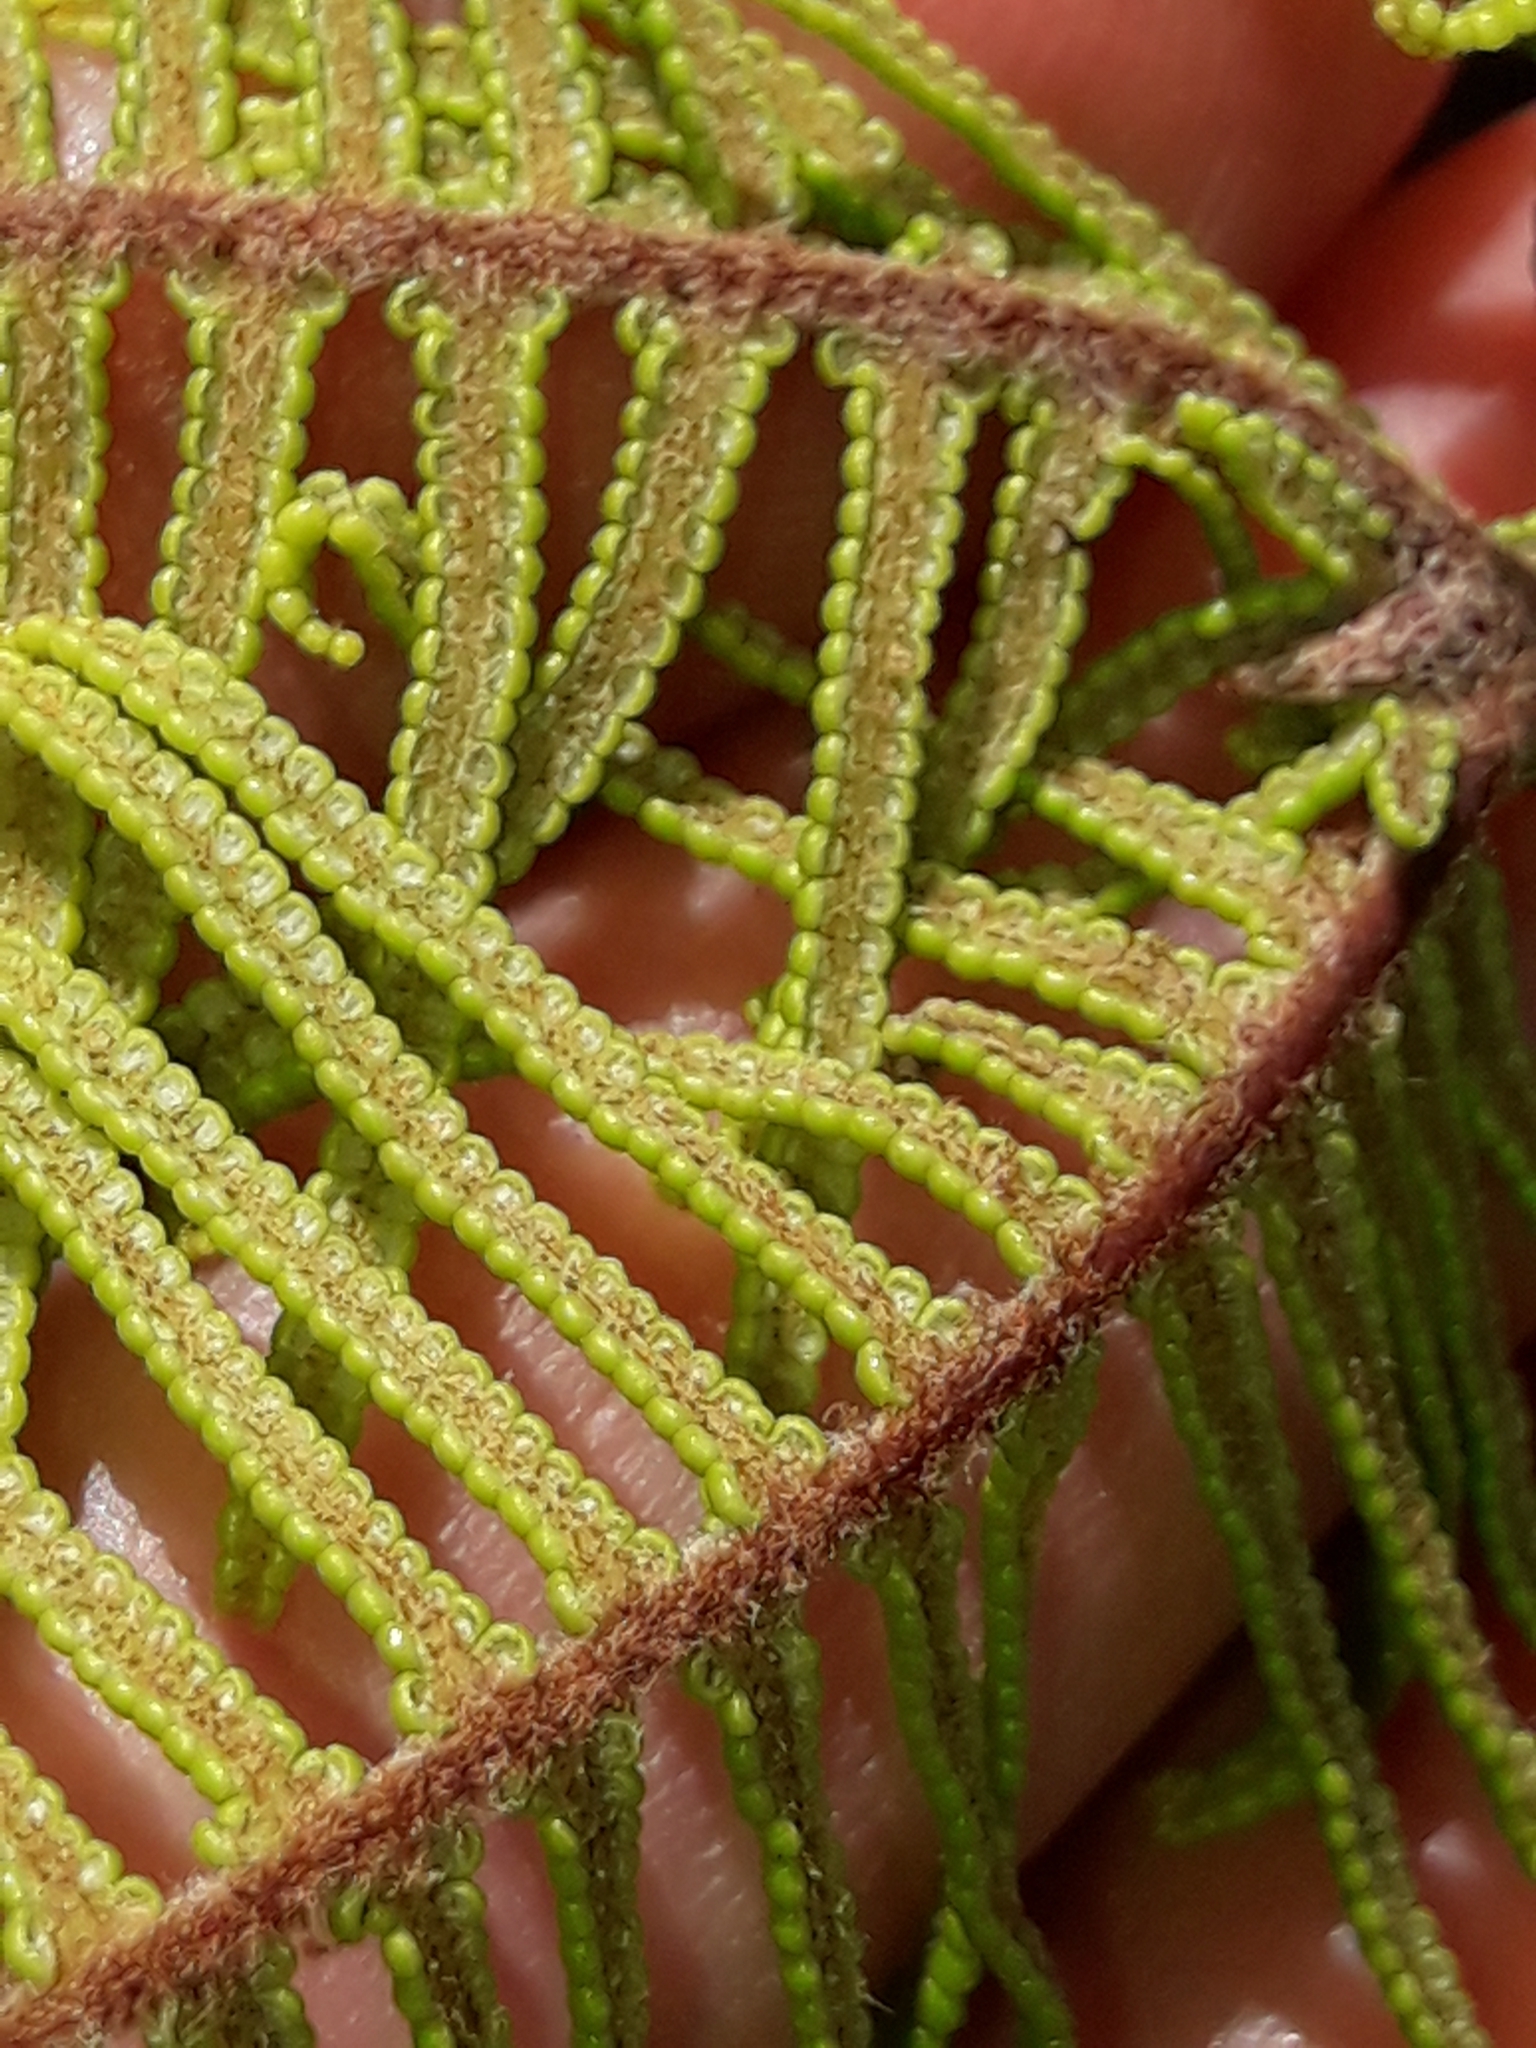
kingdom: Plantae
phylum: Tracheophyta
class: Polypodiopsida
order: Gleicheniales
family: Gleicheniaceae
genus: Gleichenia
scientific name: Gleichenia dicarpa
